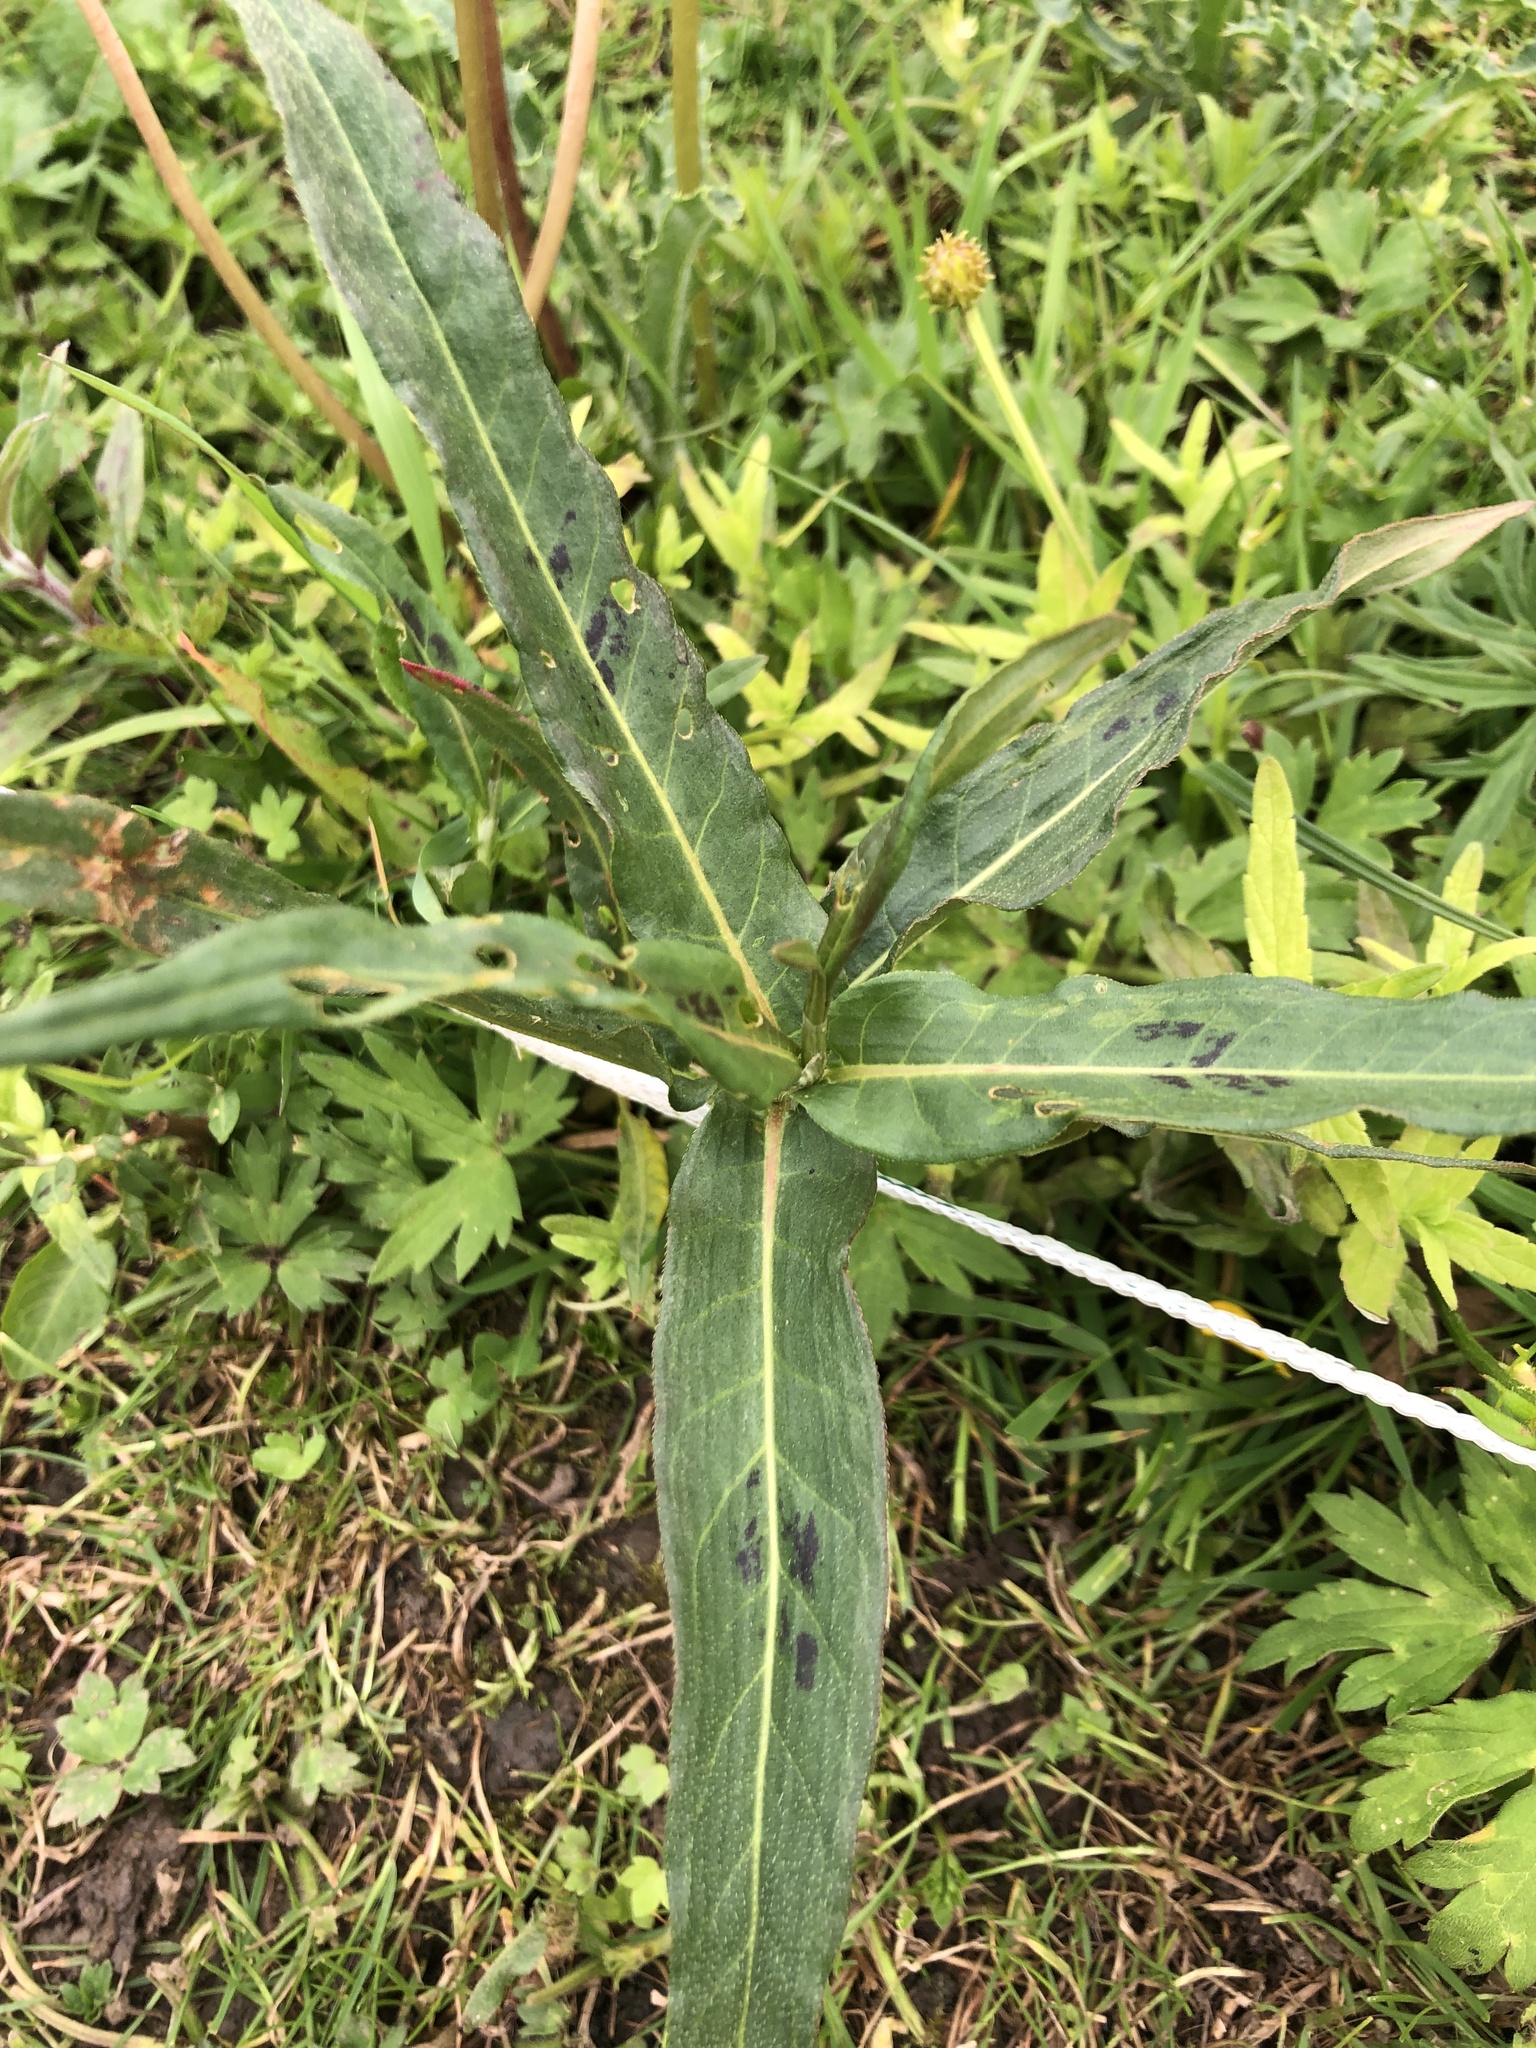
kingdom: Plantae
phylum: Tracheophyta
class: Magnoliopsida
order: Caryophyllales
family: Polygonaceae
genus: Persicaria
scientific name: Persicaria amphibia
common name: Amphibious bistort
